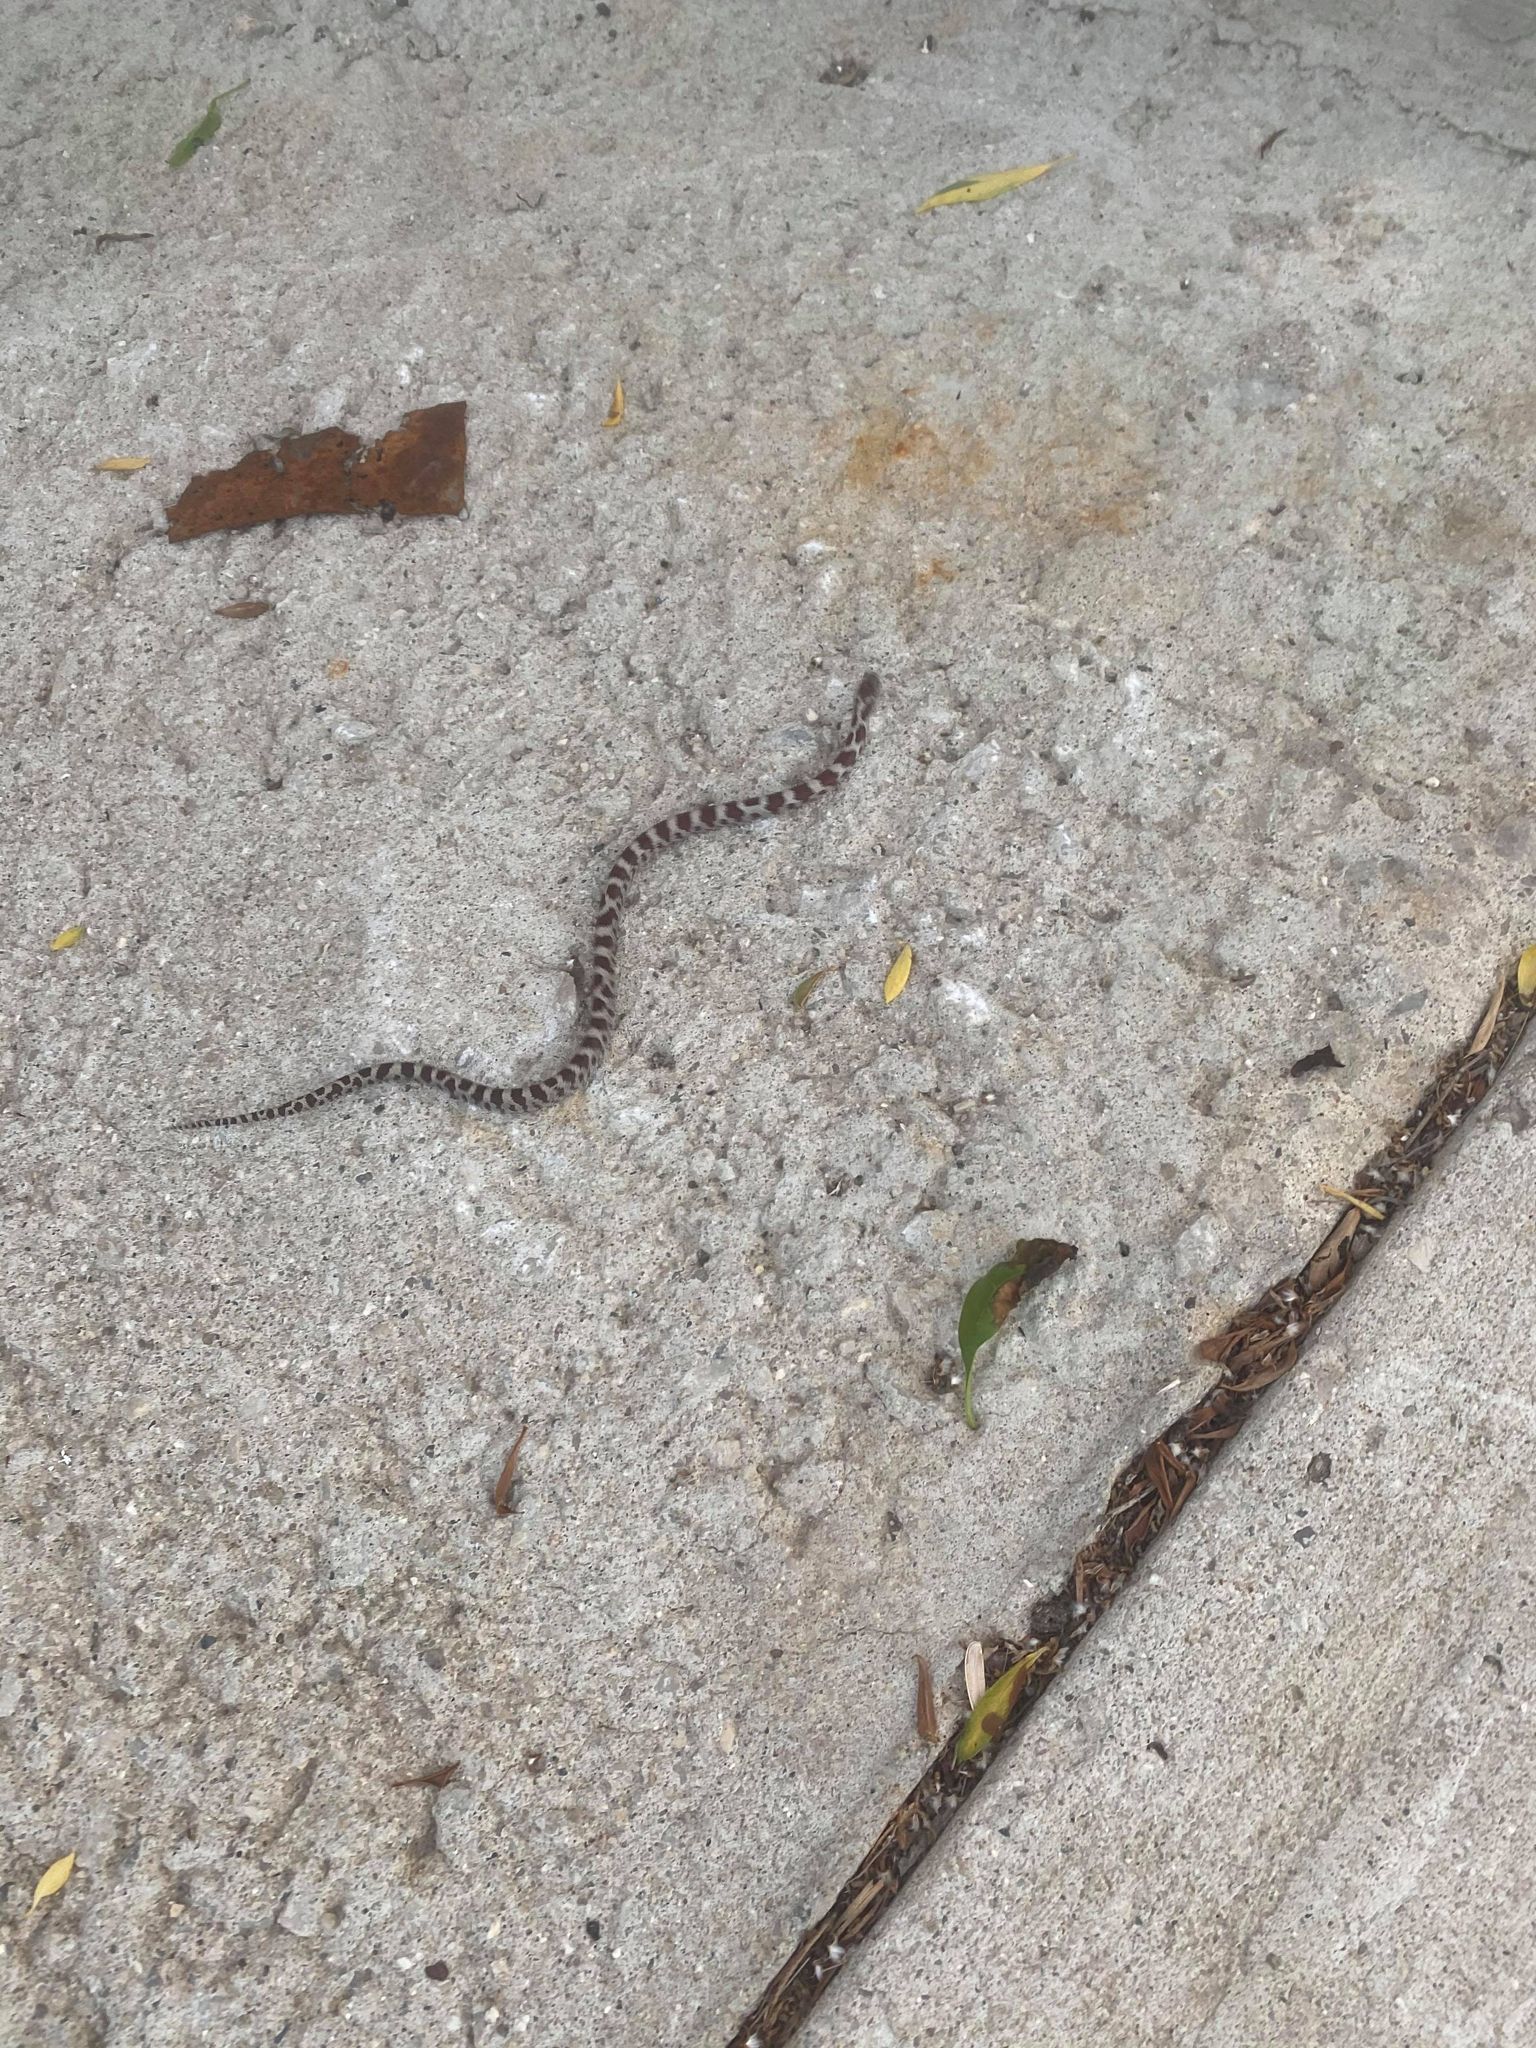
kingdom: Animalia
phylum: Chordata
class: Squamata
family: Colubridae
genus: Lampropeltis
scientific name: Lampropeltis triangulum
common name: Eastern milksnake
